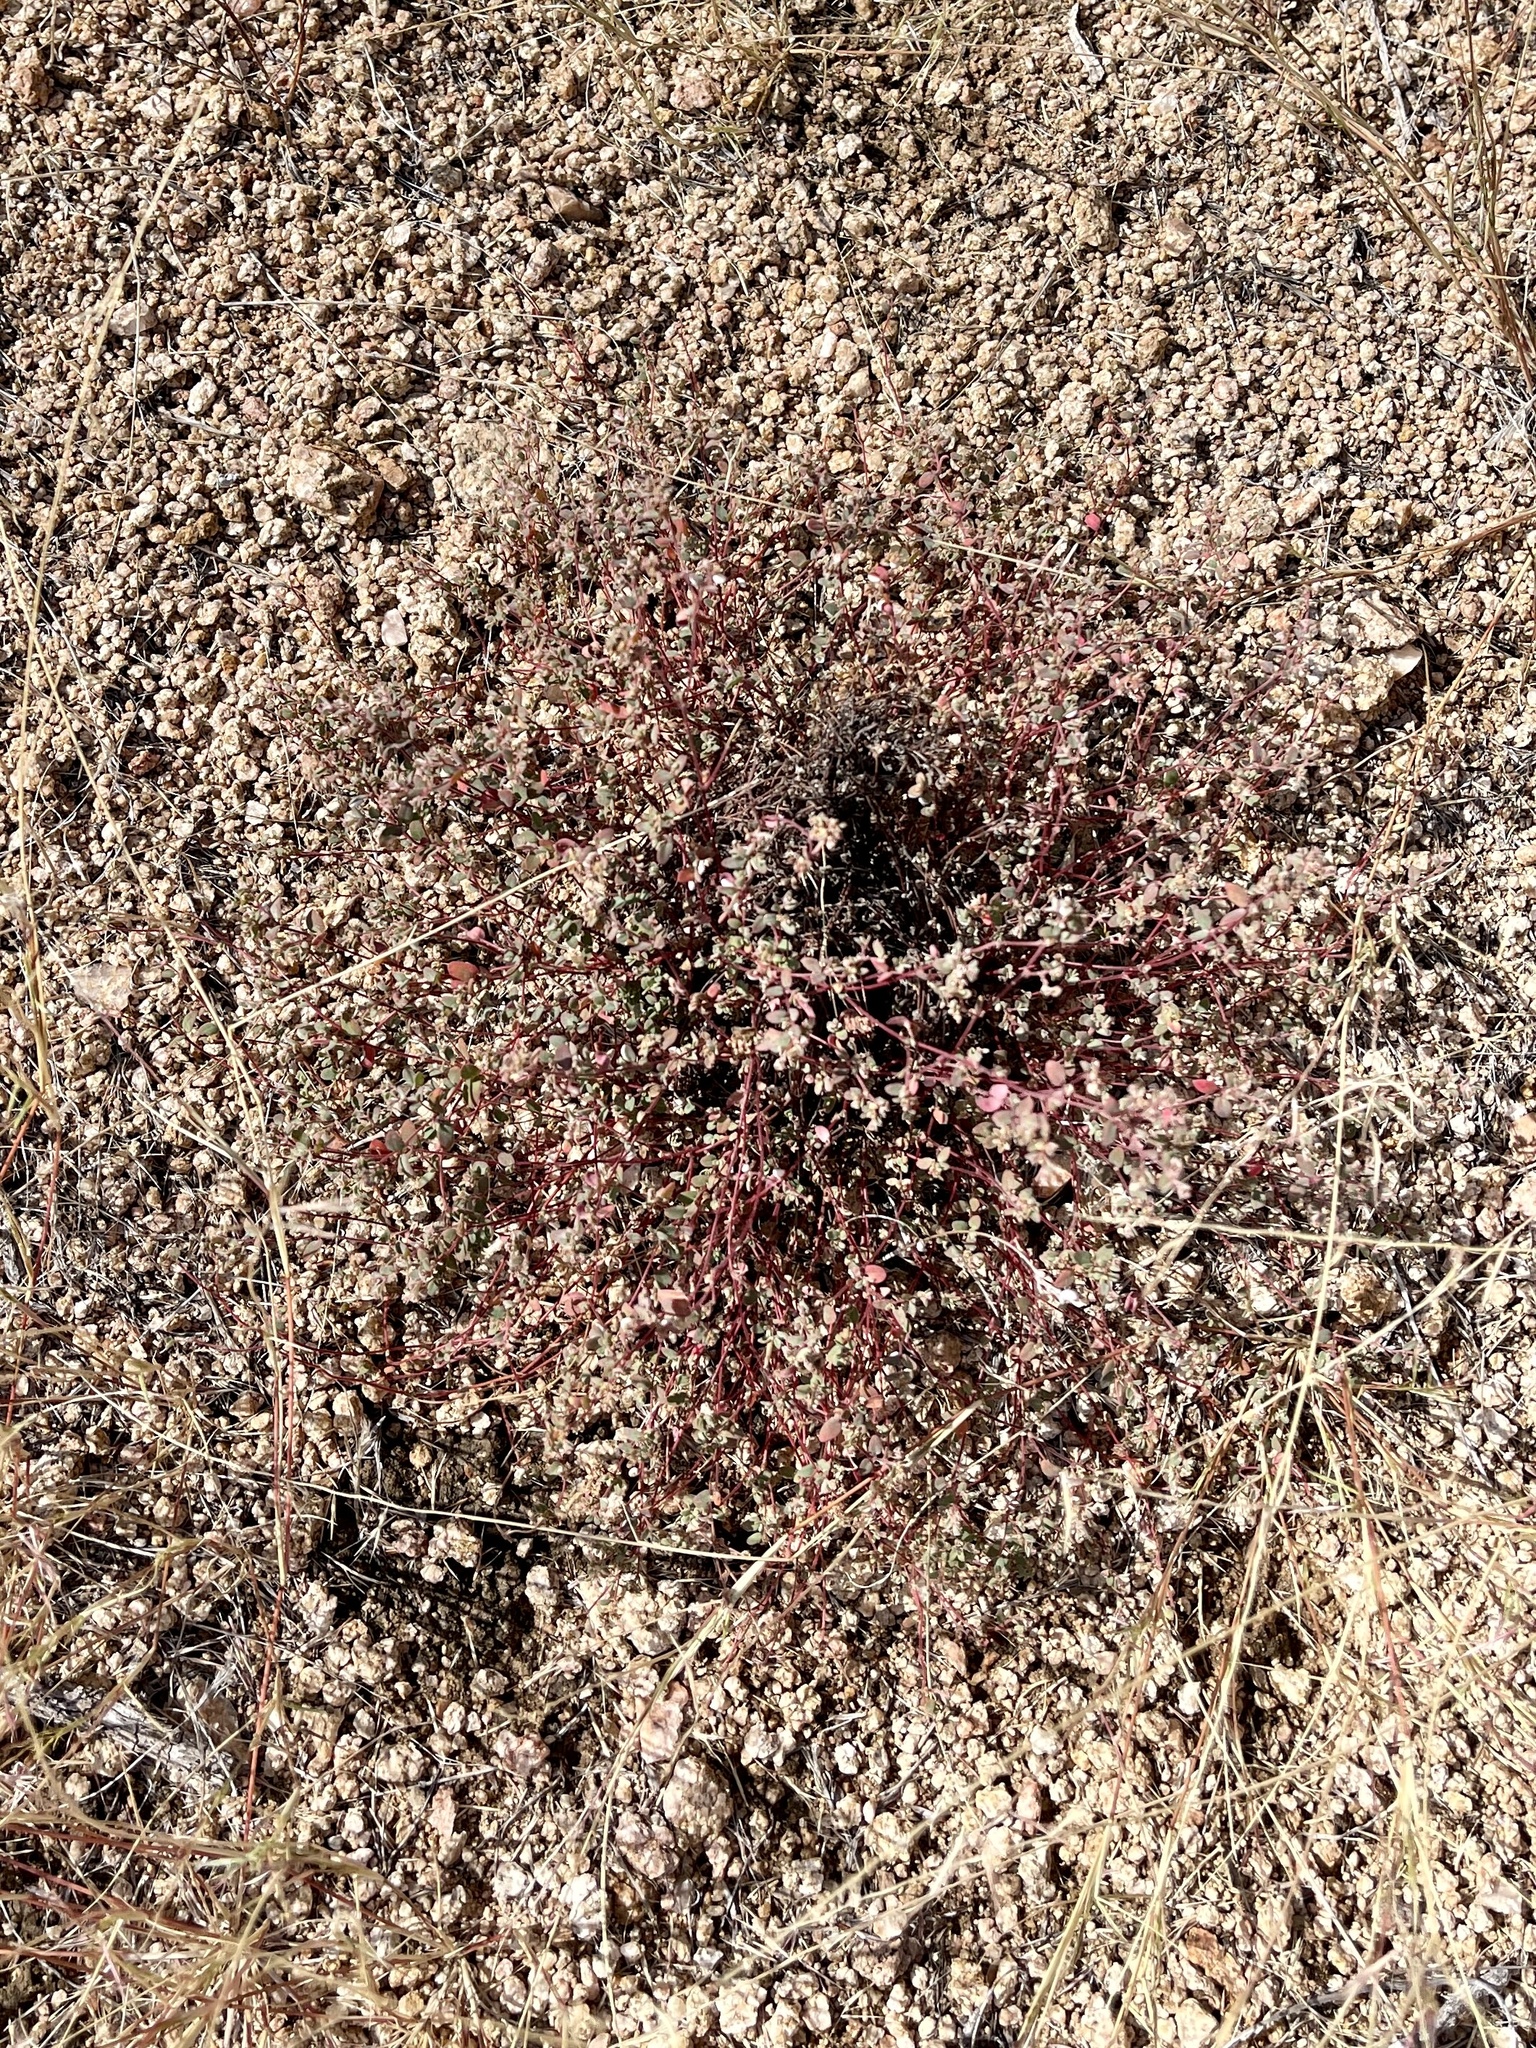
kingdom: Plantae
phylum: Tracheophyta
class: Magnoliopsida
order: Malpighiales
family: Euphorbiaceae
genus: Euphorbia
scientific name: Euphorbia melanadenia
